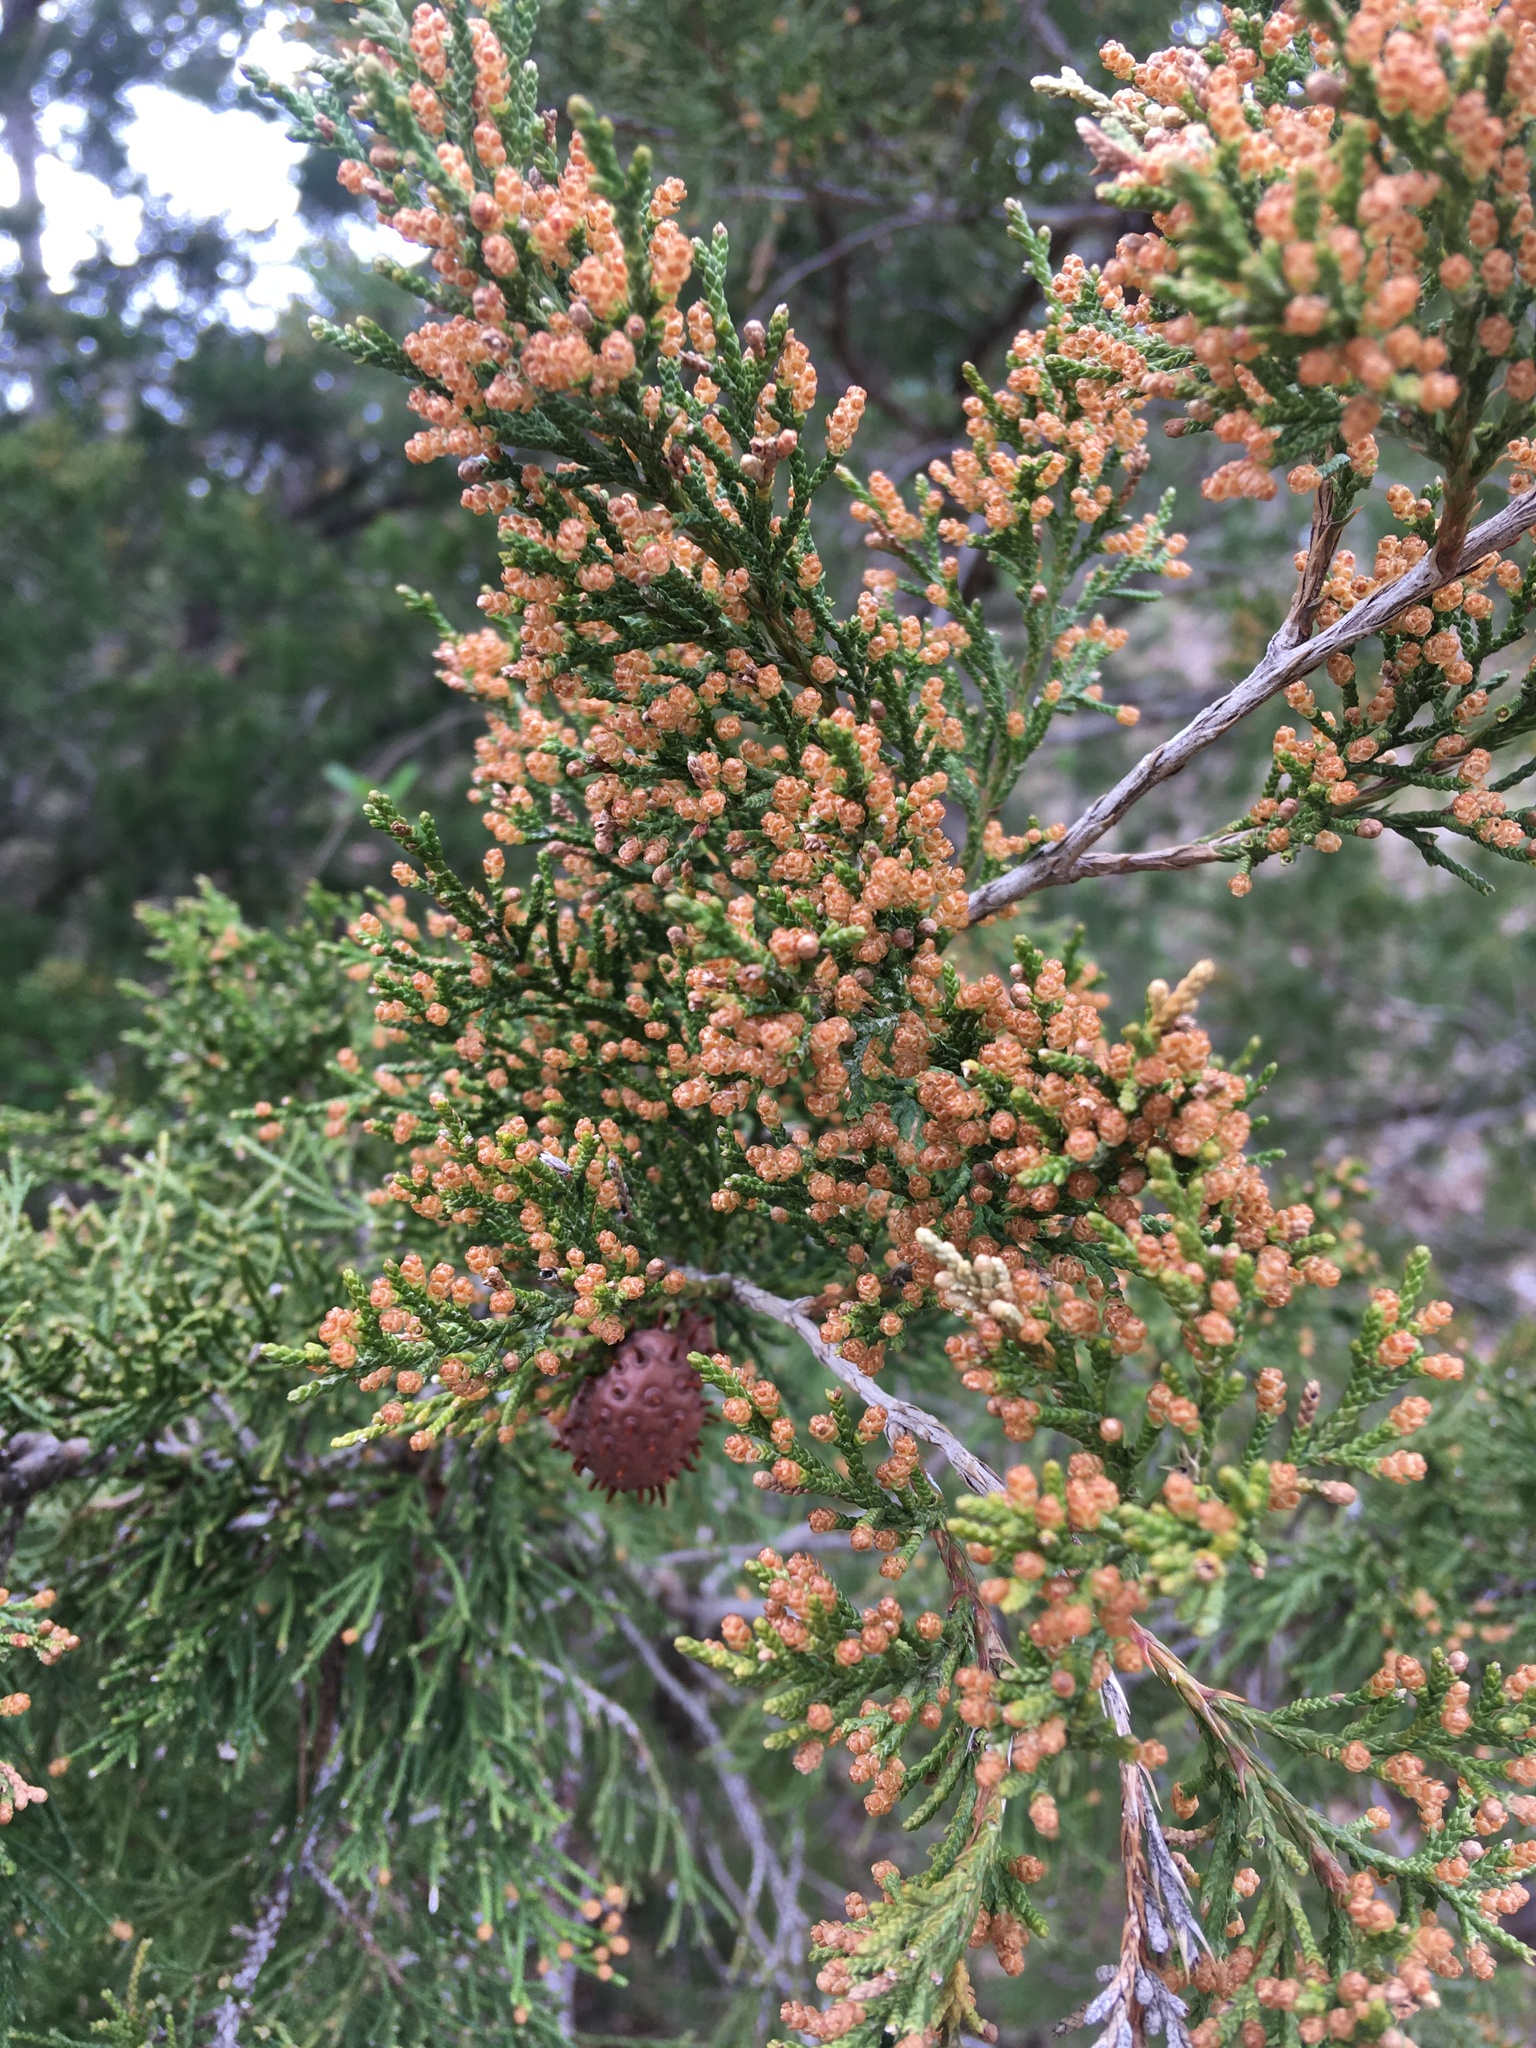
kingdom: Plantae
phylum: Tracheophyta
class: Pinopsida
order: Pinales
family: Cupressaceae
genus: Juniperus
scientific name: Juniperus virginiana
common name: Red juniper
